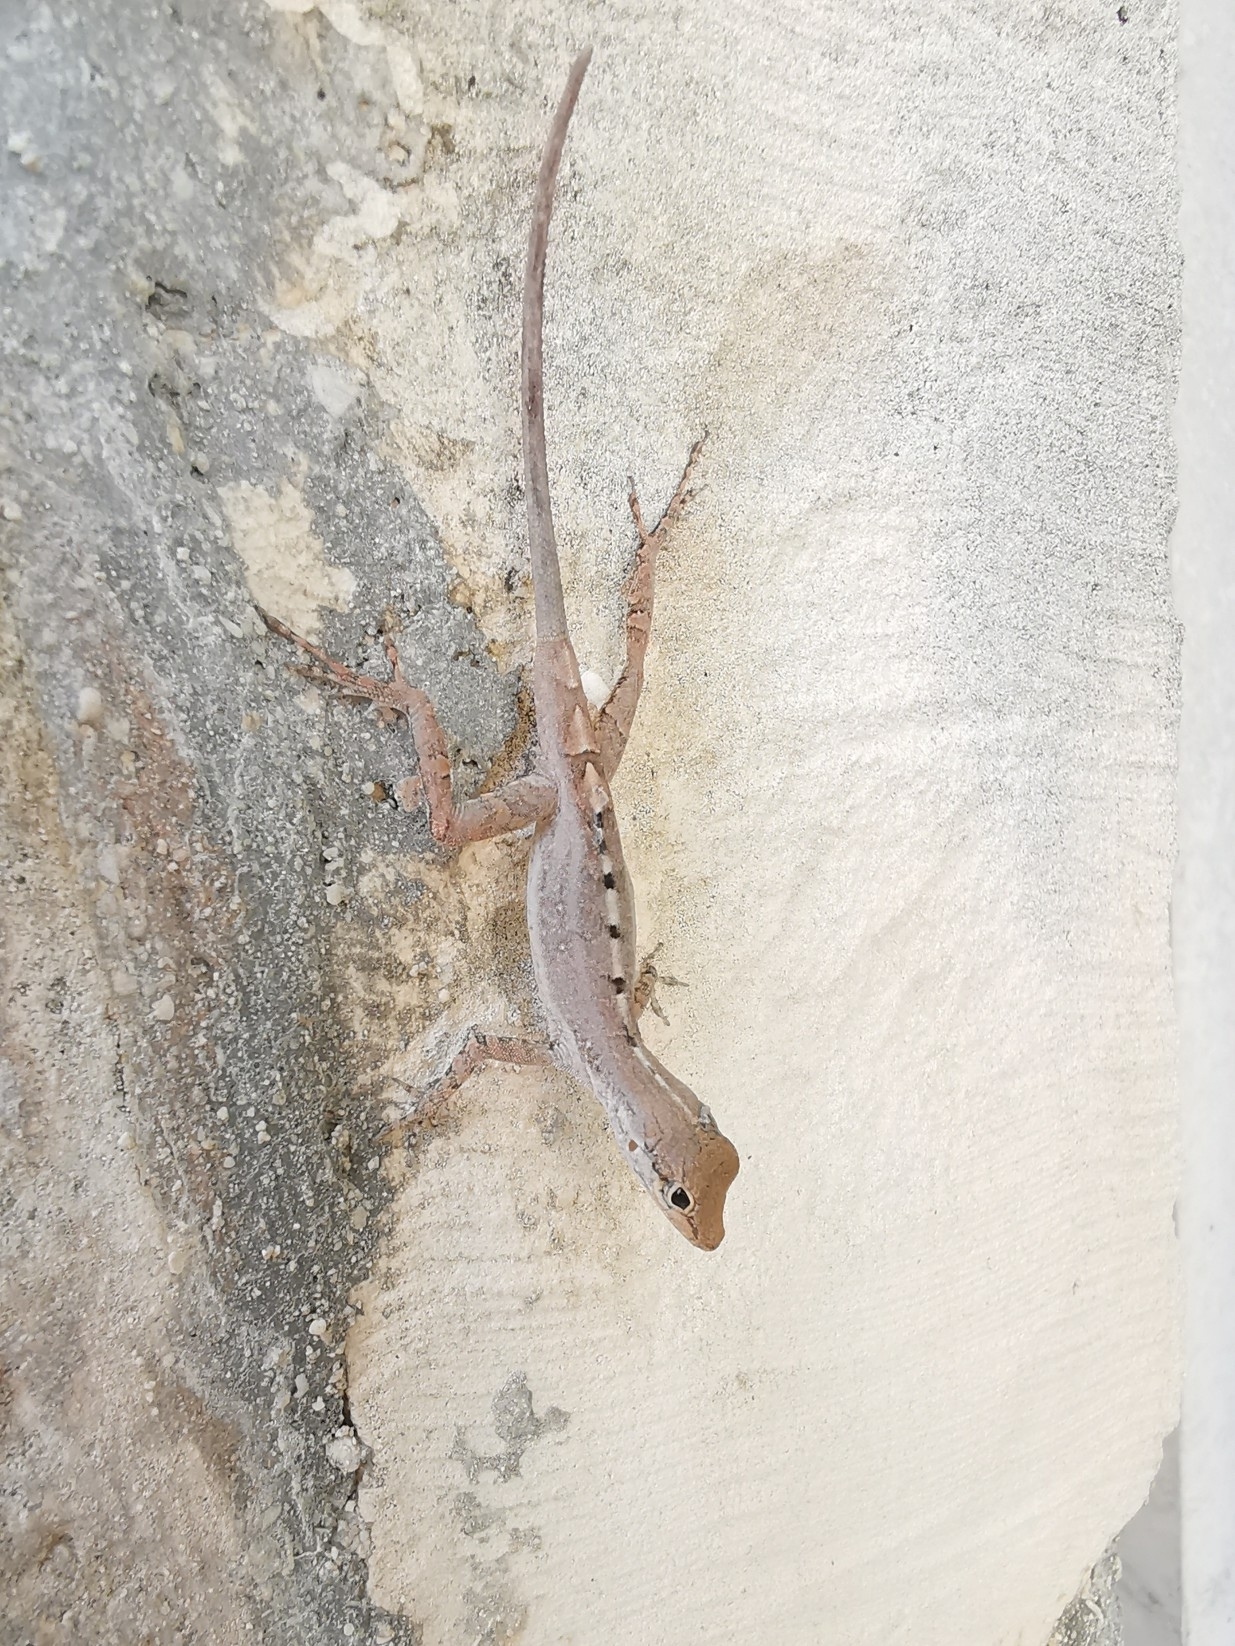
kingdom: Animalia
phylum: Chordata
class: Squamata
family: Dactyloidae
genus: Anolis
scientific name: Anolis scriptus
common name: Silver key anole
